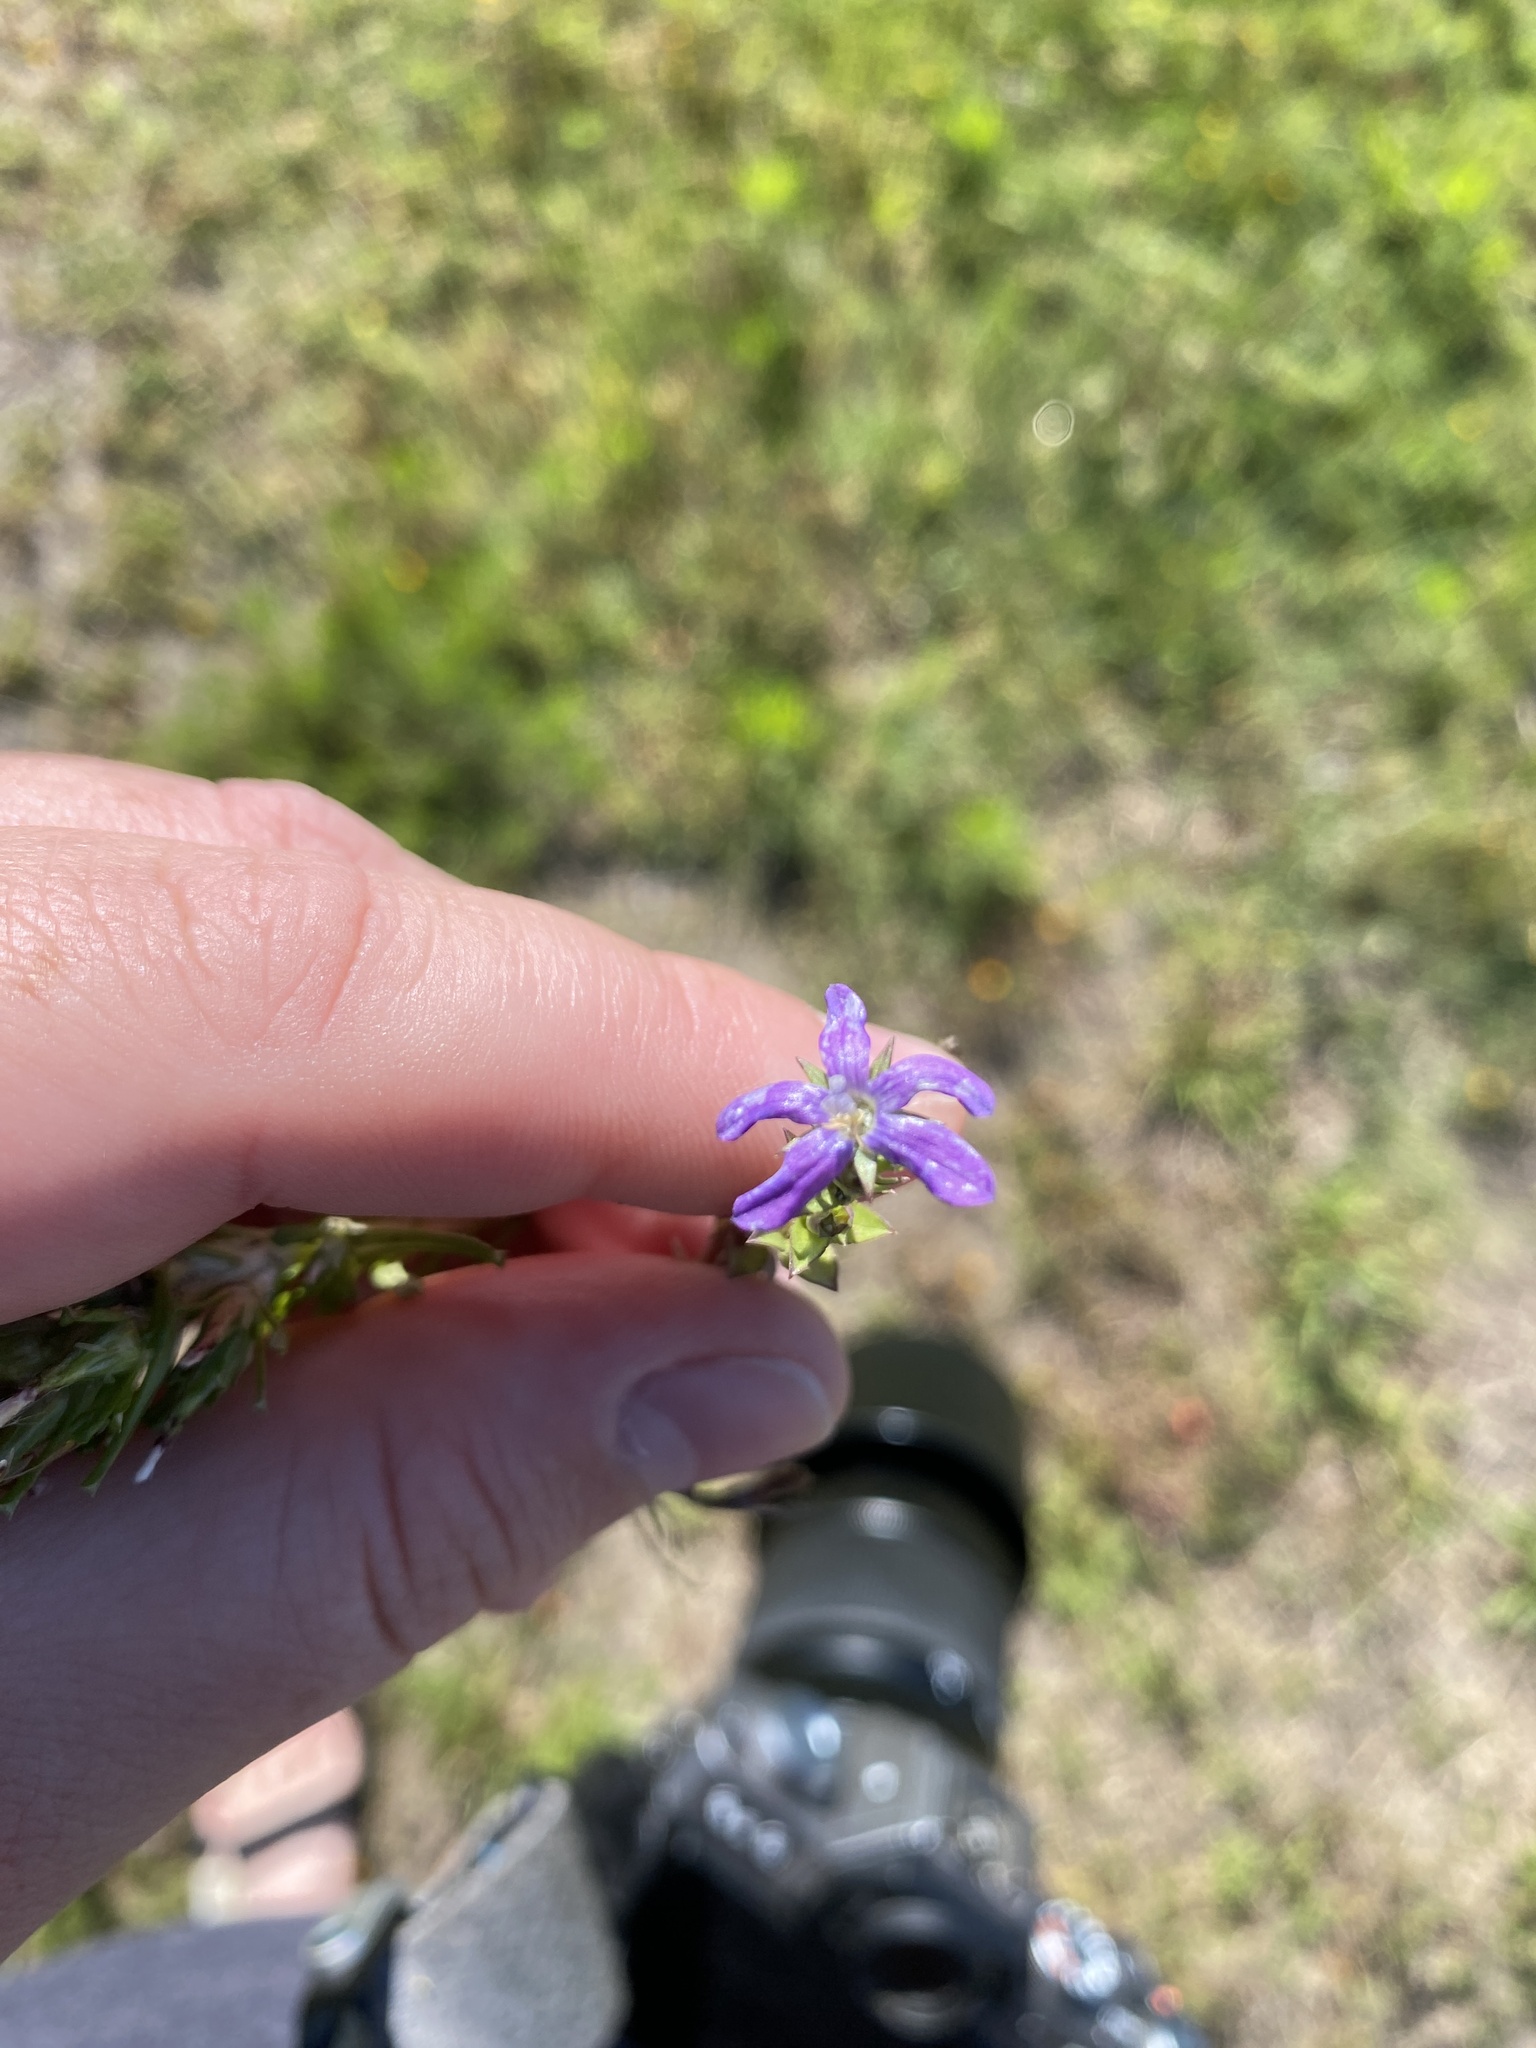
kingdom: Plantae
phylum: Tracheophyta
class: Magnoliopsida
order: Asterales
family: Campanulaceae
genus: Triodanis
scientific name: Triodanis biflora
